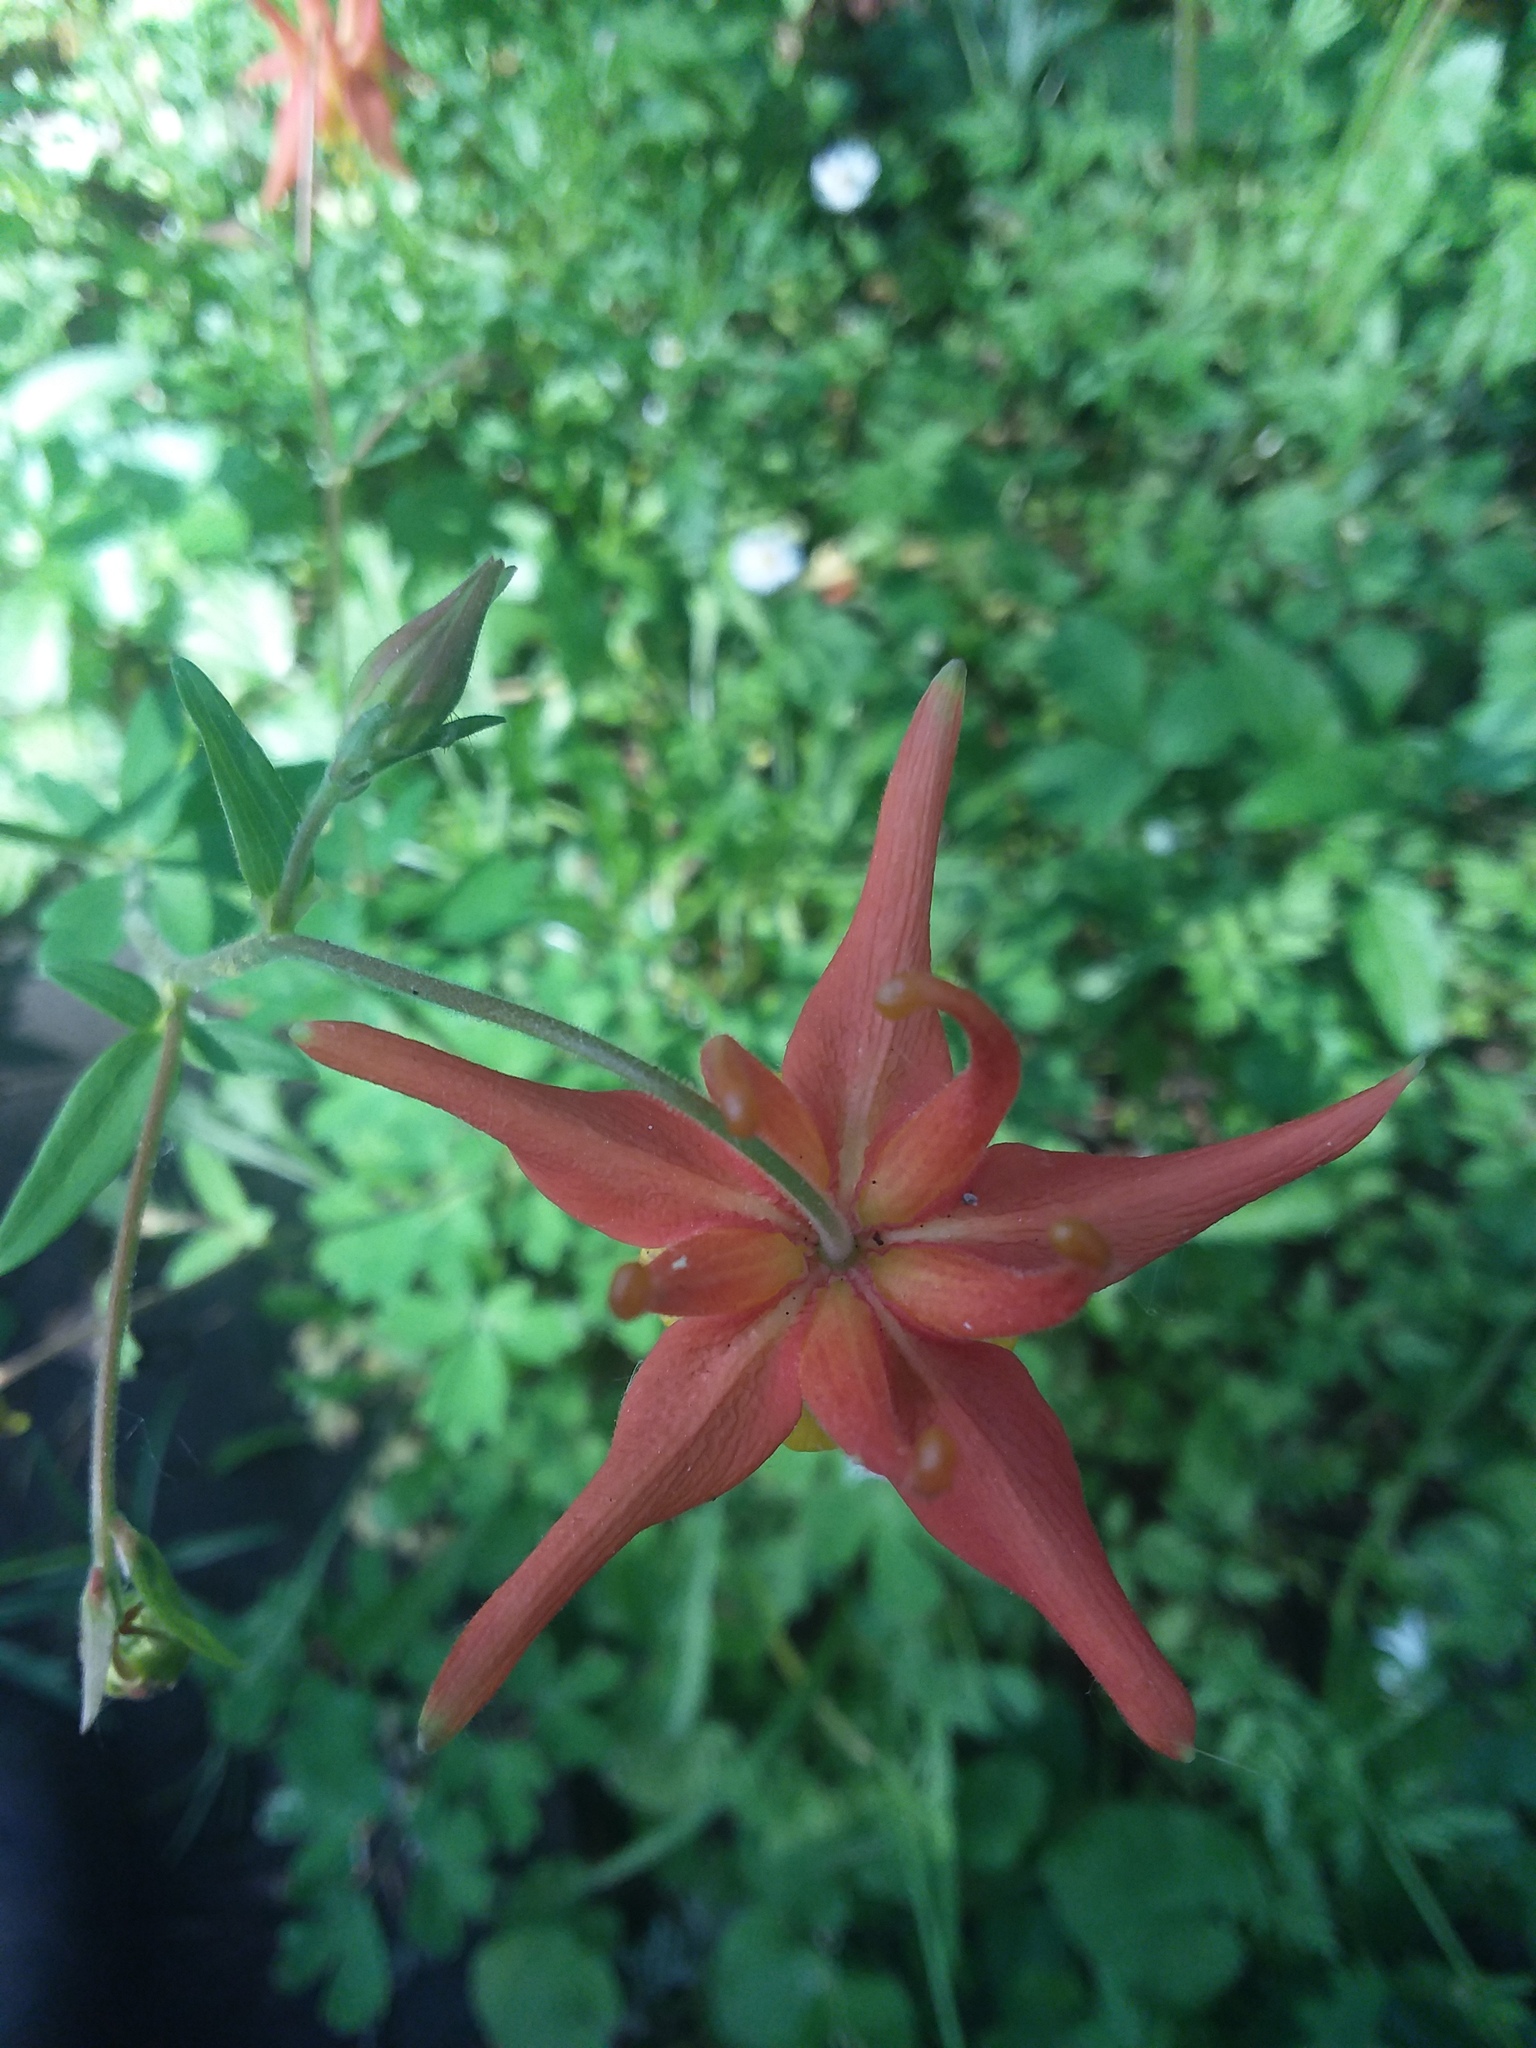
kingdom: Plantae
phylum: Tracheophyta
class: Magnoliopsida
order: Ranunculales
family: Ranunculaceae
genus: Aquilegia
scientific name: Aquilegia formosa
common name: Sitka columbine
